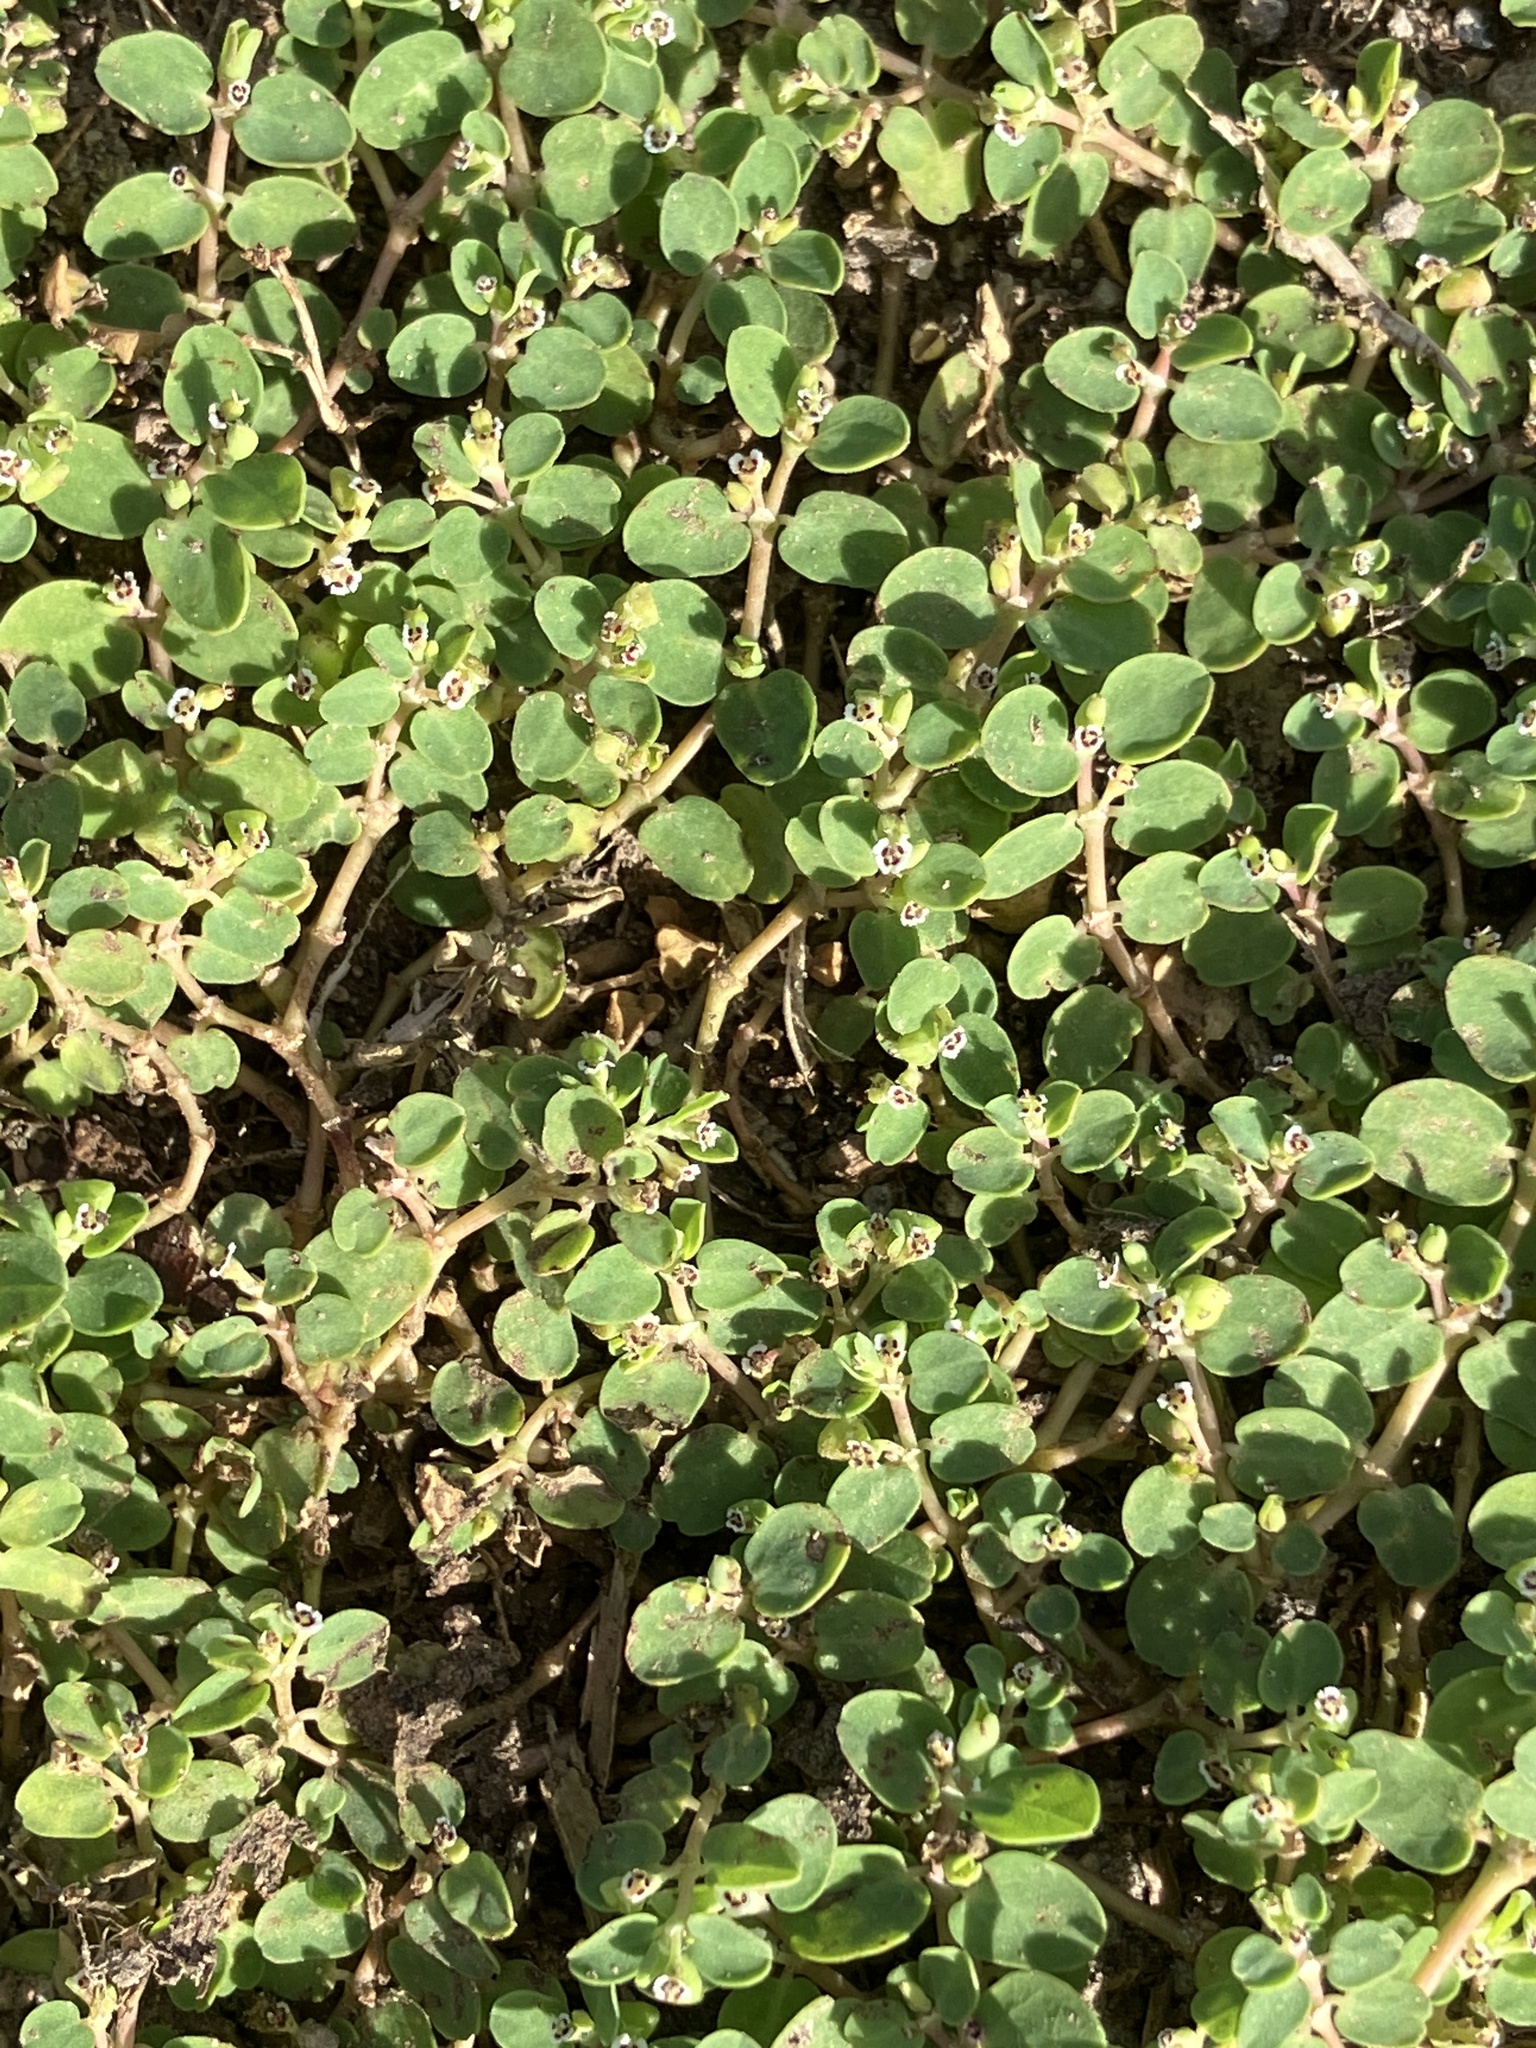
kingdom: Plantae
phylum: Tracheophyta
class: Magnoliopsida
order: Malpighiales
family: Euphorbiaceae
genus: Euphorbia
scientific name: Euphorbia serpens
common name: Matted sandmat
